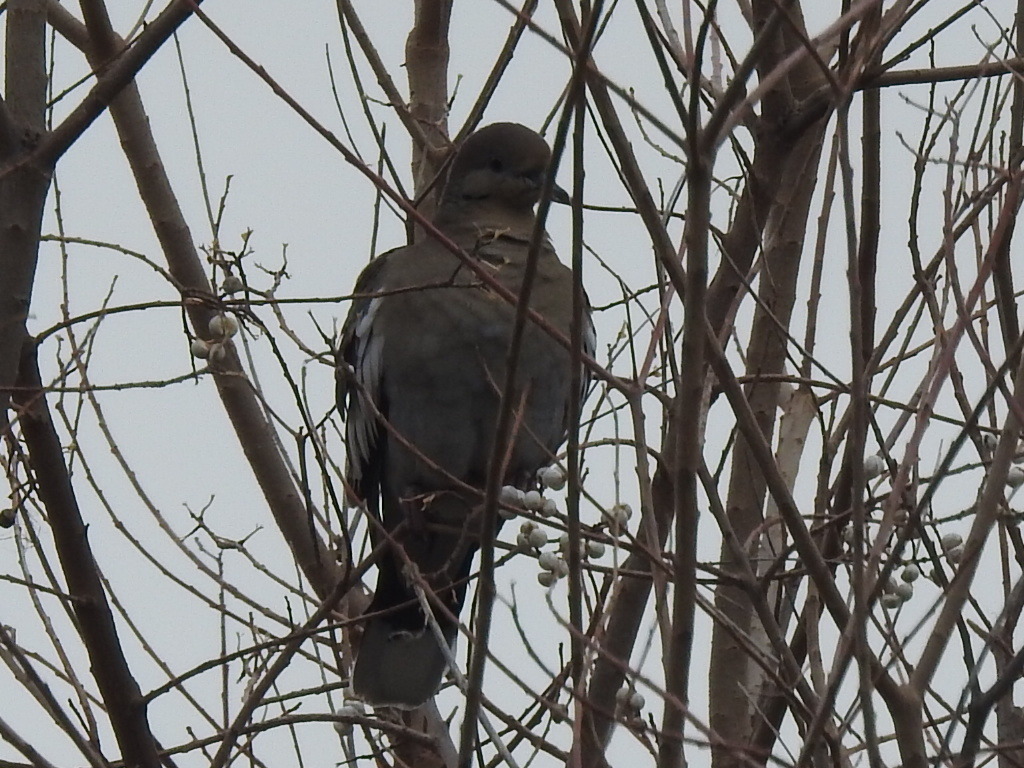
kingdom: Animalia
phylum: Chordata
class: Aves
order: Columbiformes
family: Columbidae
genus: Zenaida
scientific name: Zenaida asiatica
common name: White-winged dove
